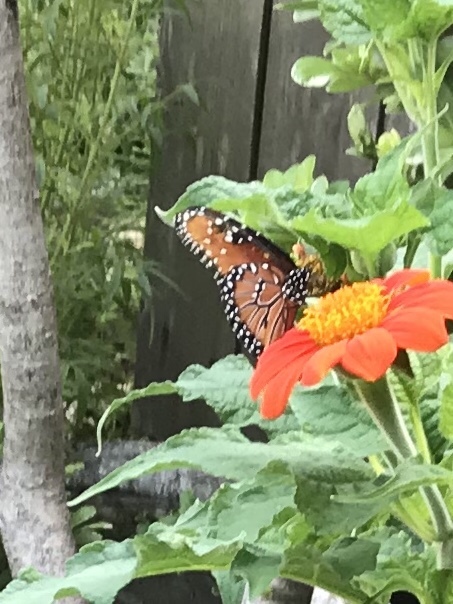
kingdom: Animalia
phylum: Arthropoda
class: Insecta
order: Lepidoptera
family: Nymphalidae
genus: Danaus
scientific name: Danaus gilippus
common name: Queen
